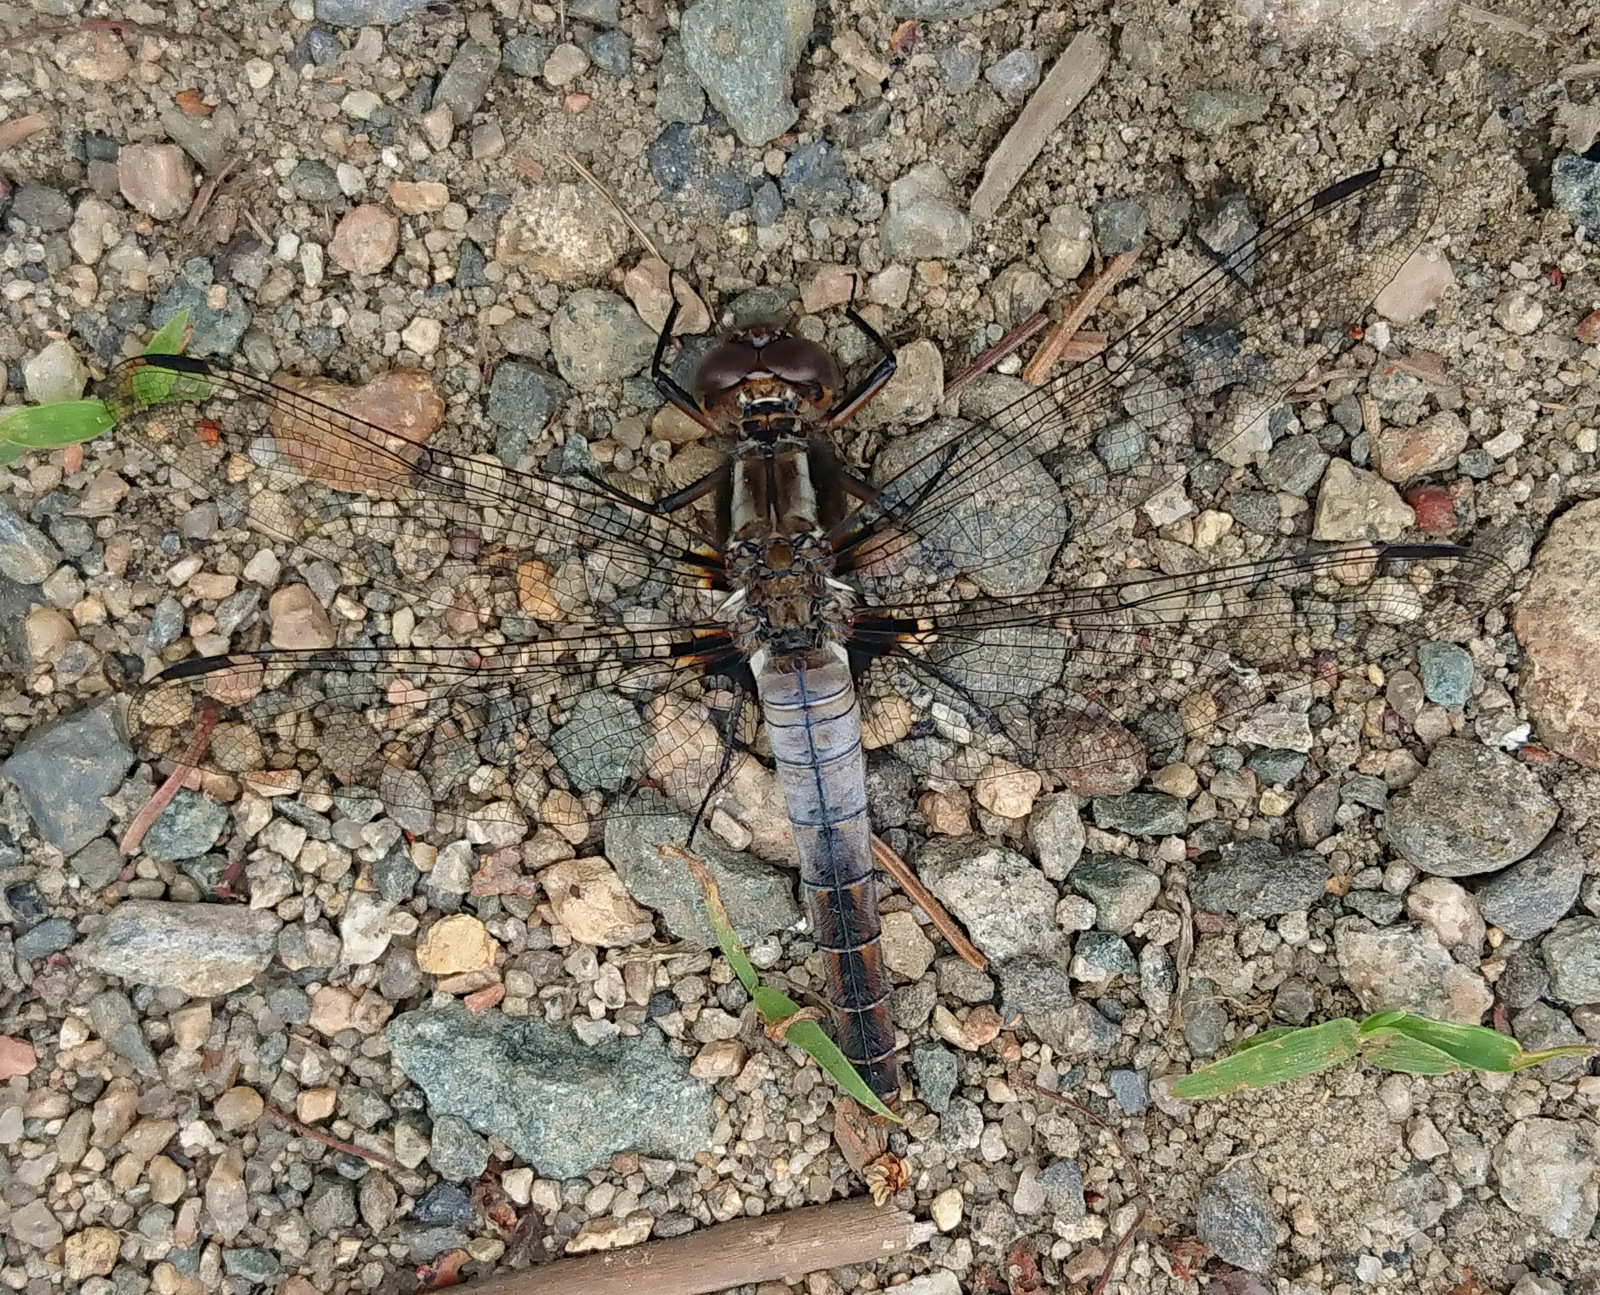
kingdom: Animalia
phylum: Arthropoda
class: Insecta
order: Odonata
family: Libellulidae
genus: Ladona
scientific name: Ladona julia
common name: Chalk-fronted corporal
